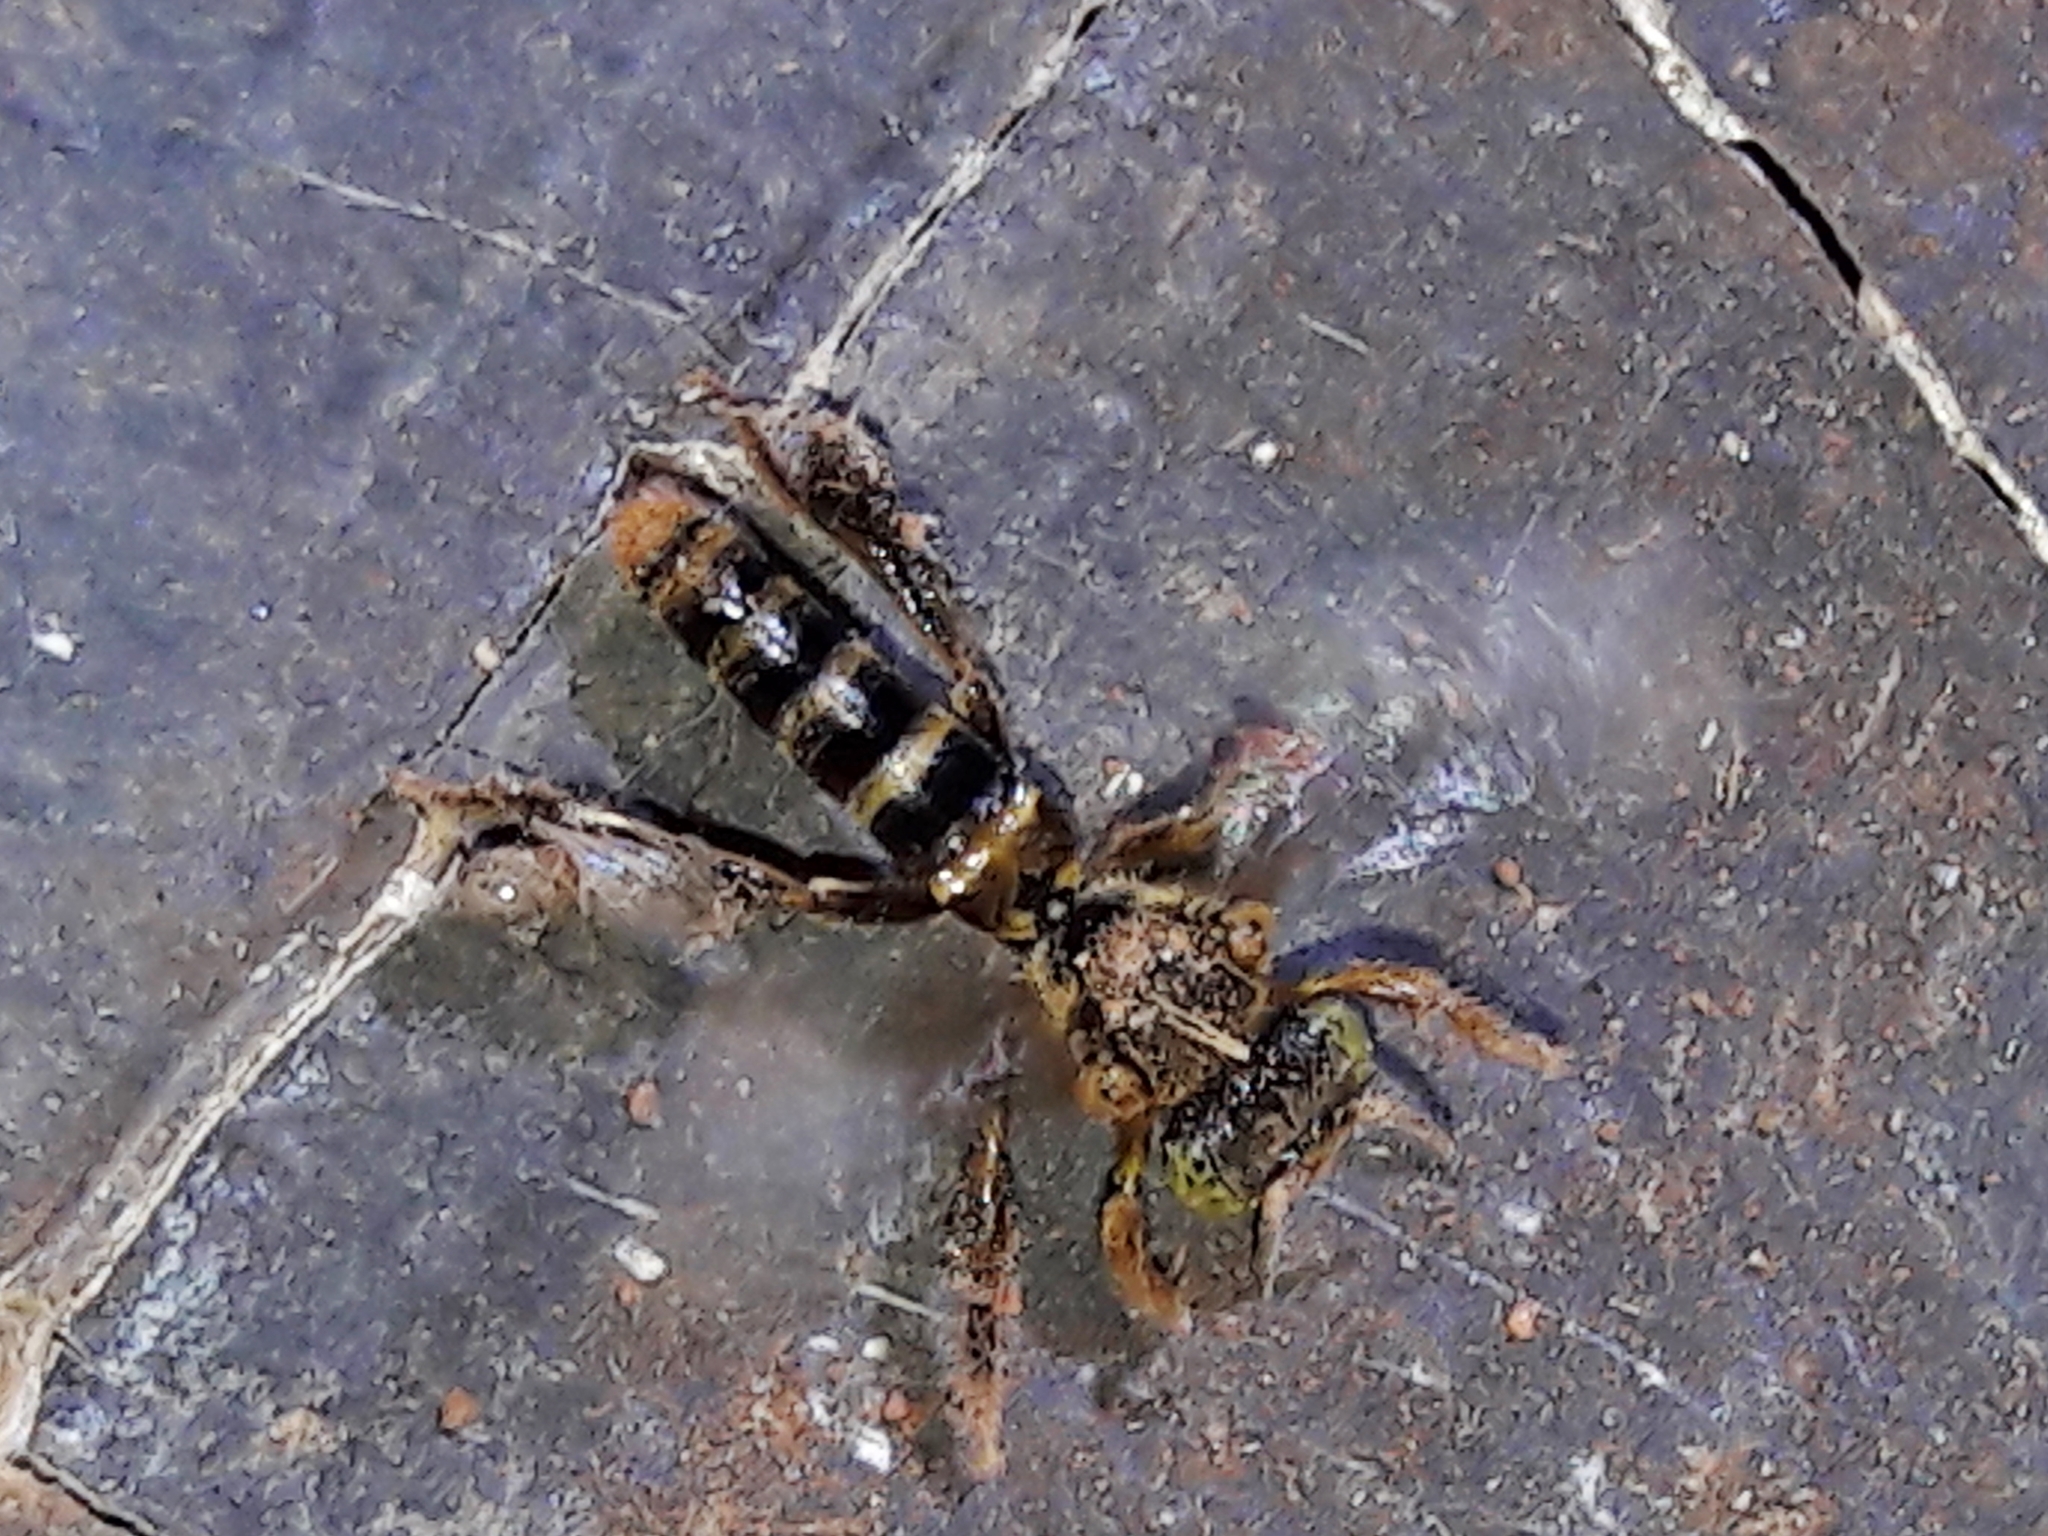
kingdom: Animalia
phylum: Arthropoda
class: Insecta
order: Hymenoptera
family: Apidae
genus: Tetragona
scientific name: Tetragona clavipes
